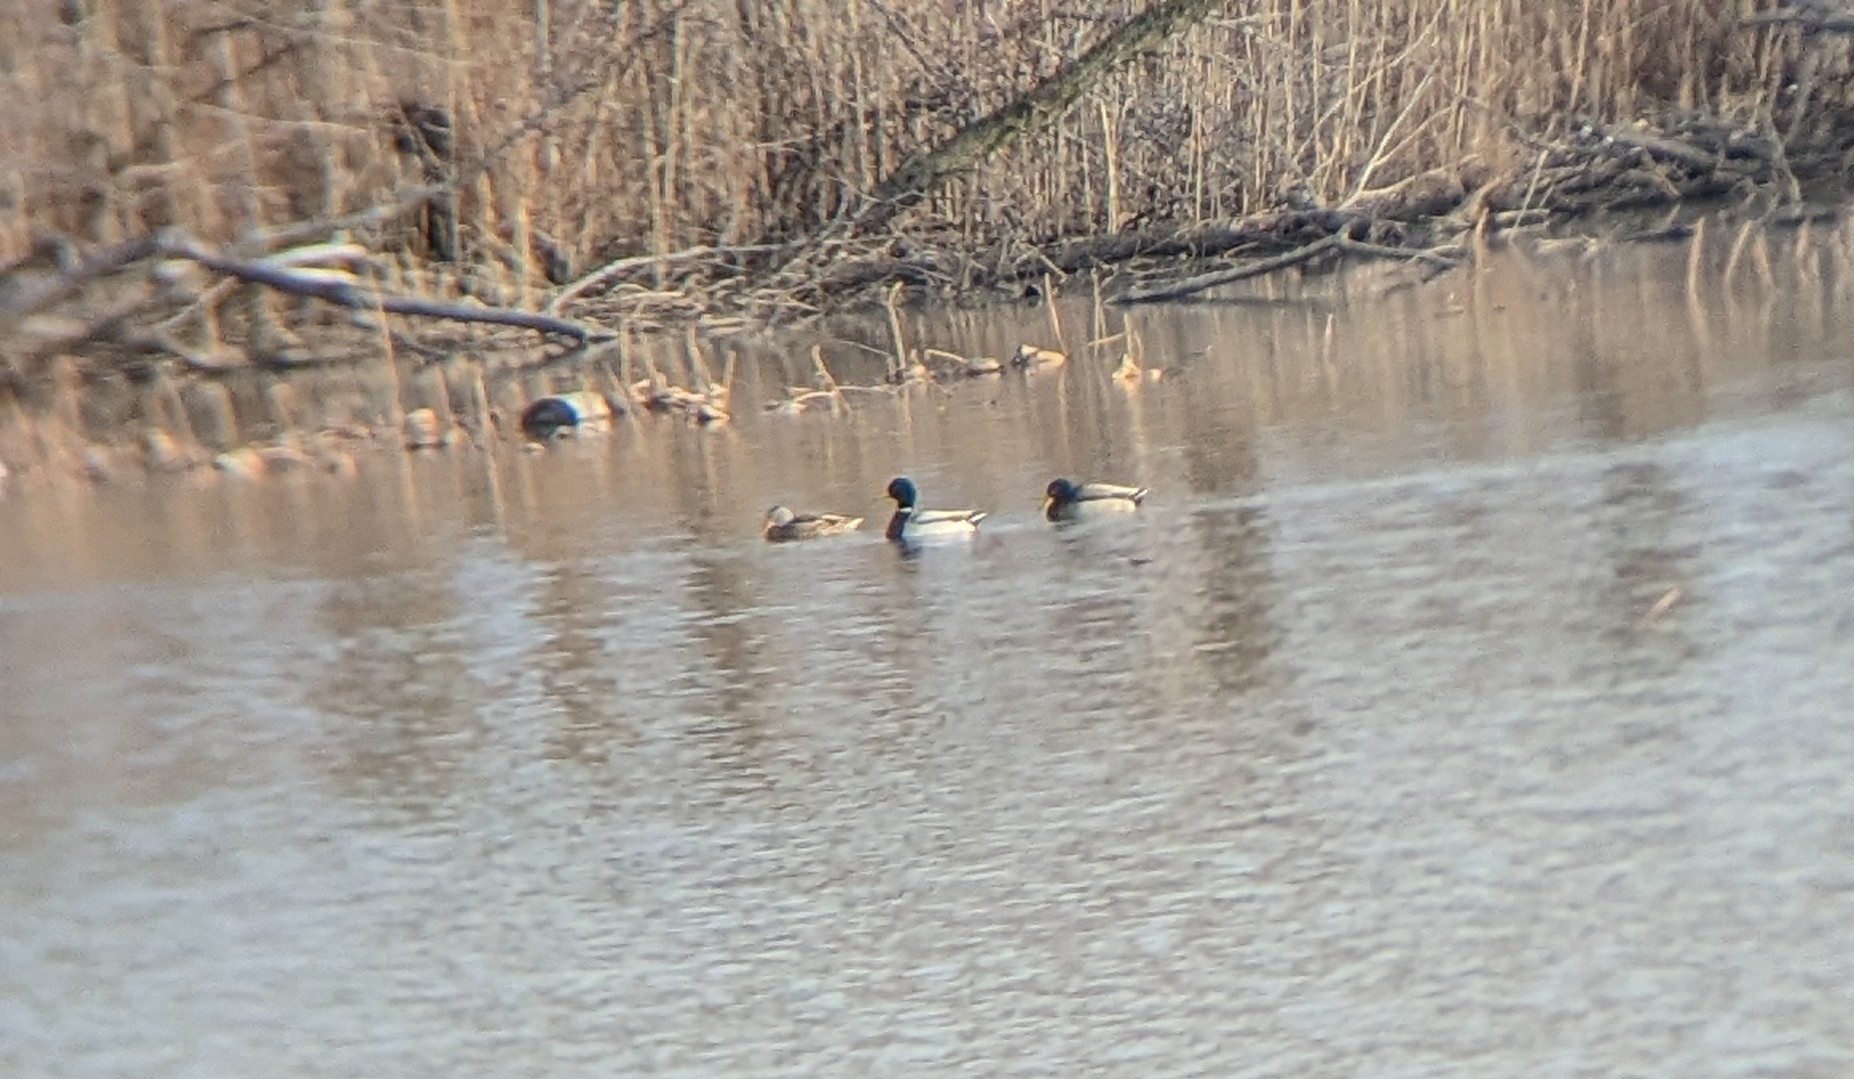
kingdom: Animalia
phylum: Chordata
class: Aves
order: Anseriformes
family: Anatidae
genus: Anas
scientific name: Anas platyrhynchos
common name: Mallard
